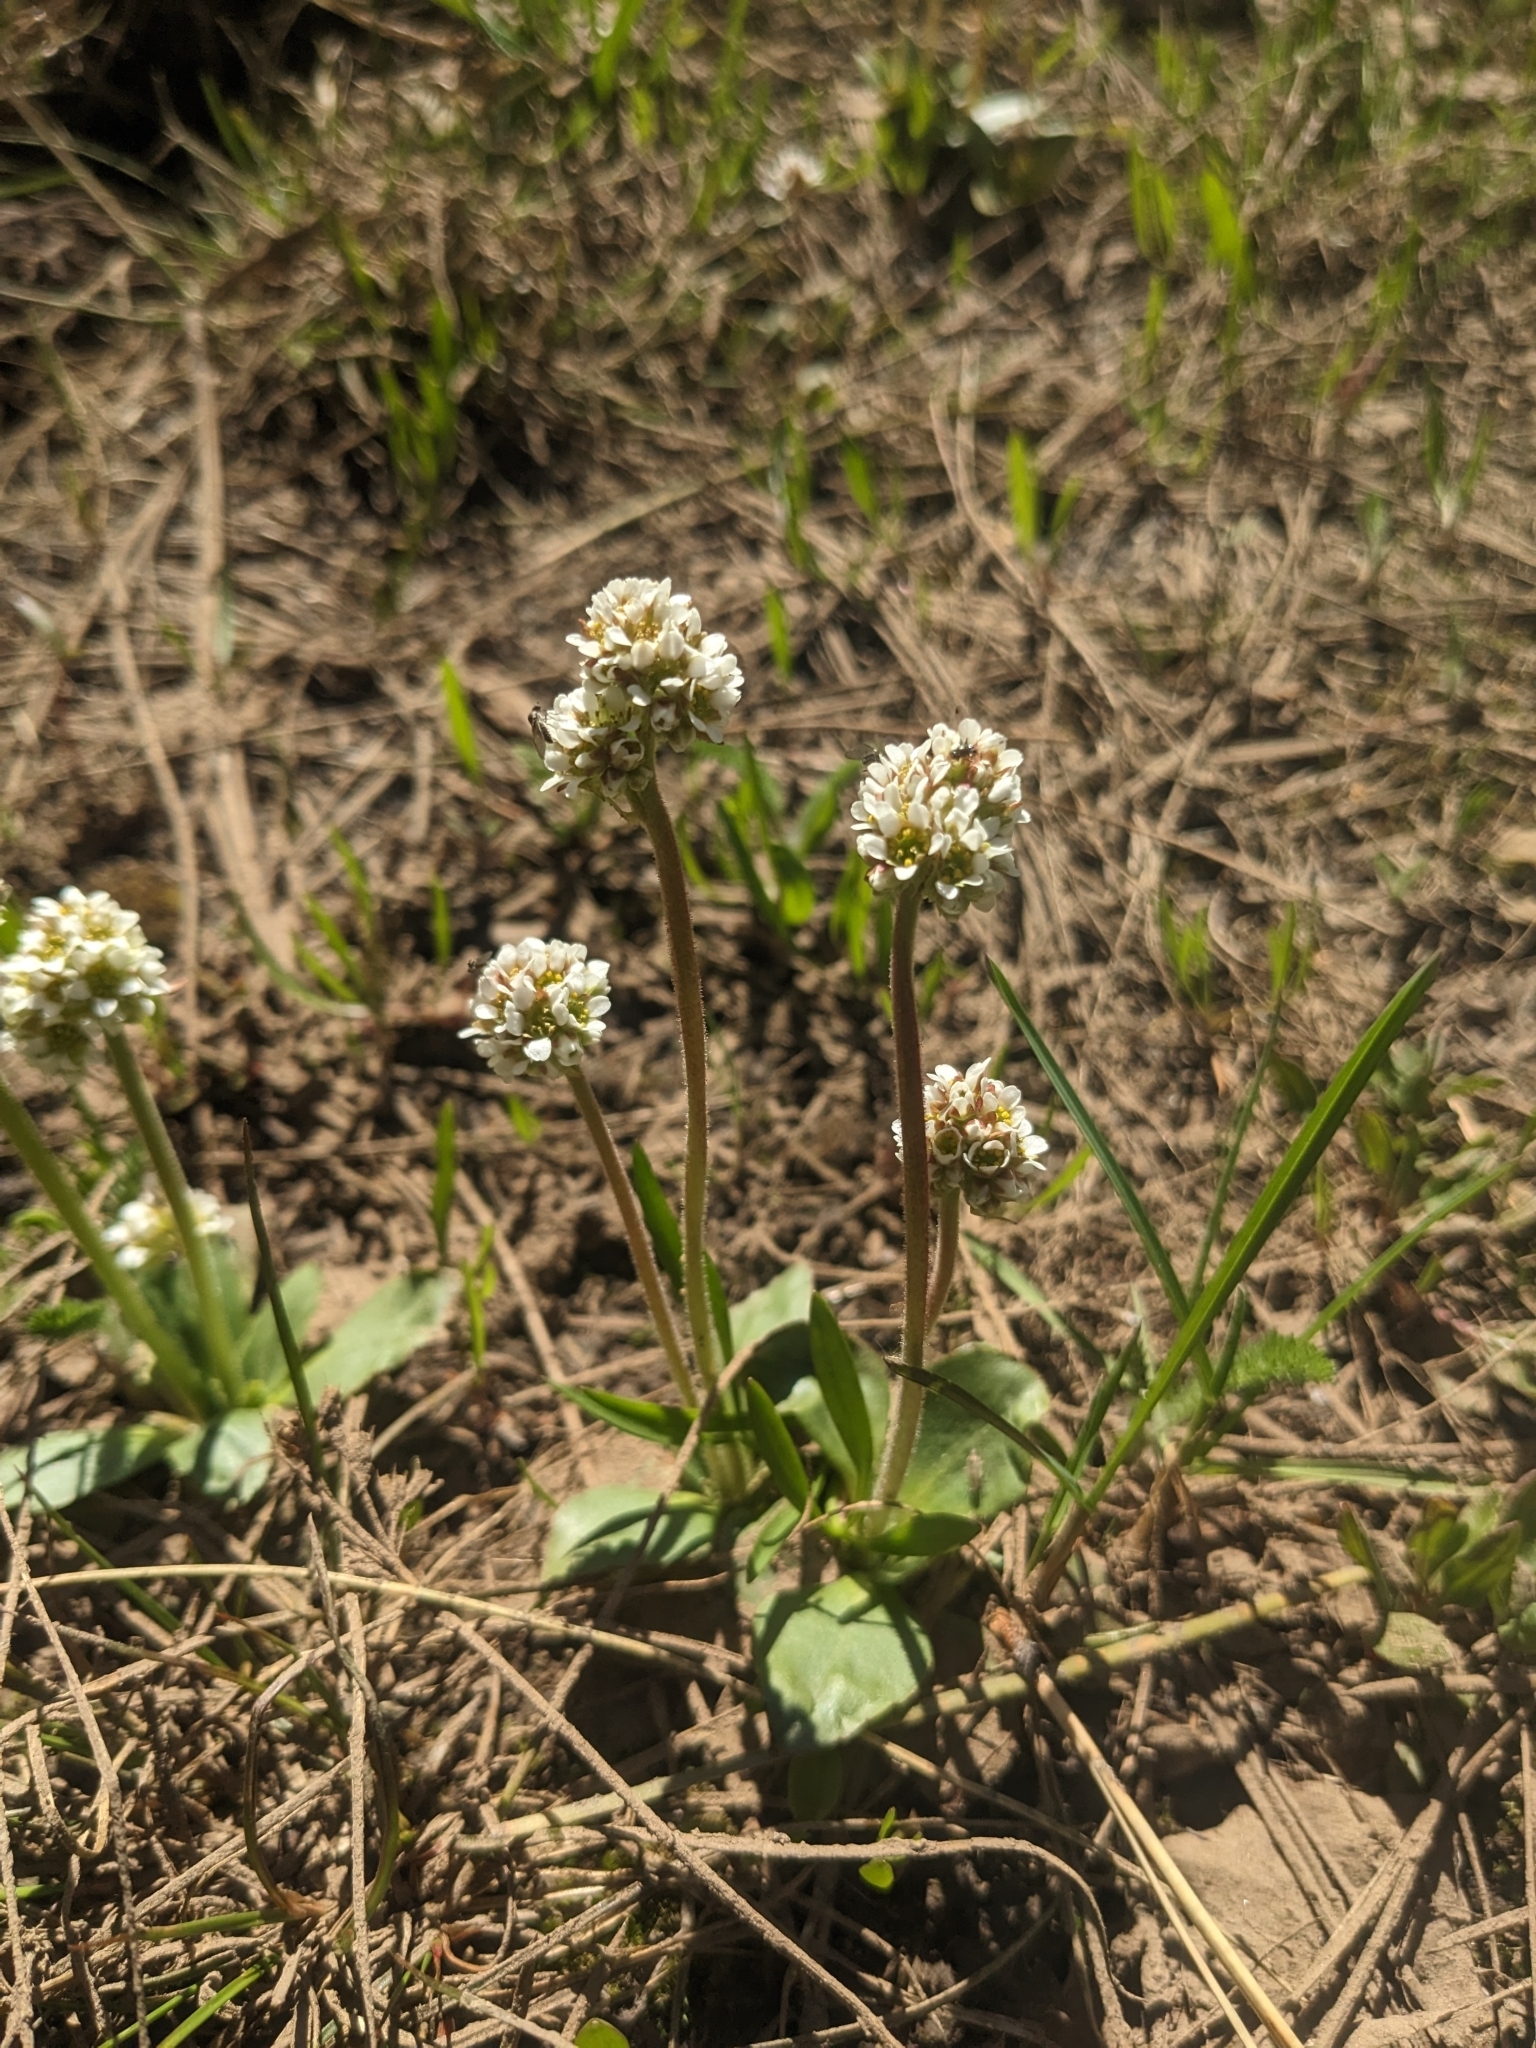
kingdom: Plantae
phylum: Tracheophyta
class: Magnoliopsida
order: Saxifragales
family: Saxifragaceae
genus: Micranthes
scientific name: Micranthes rhomboidea
